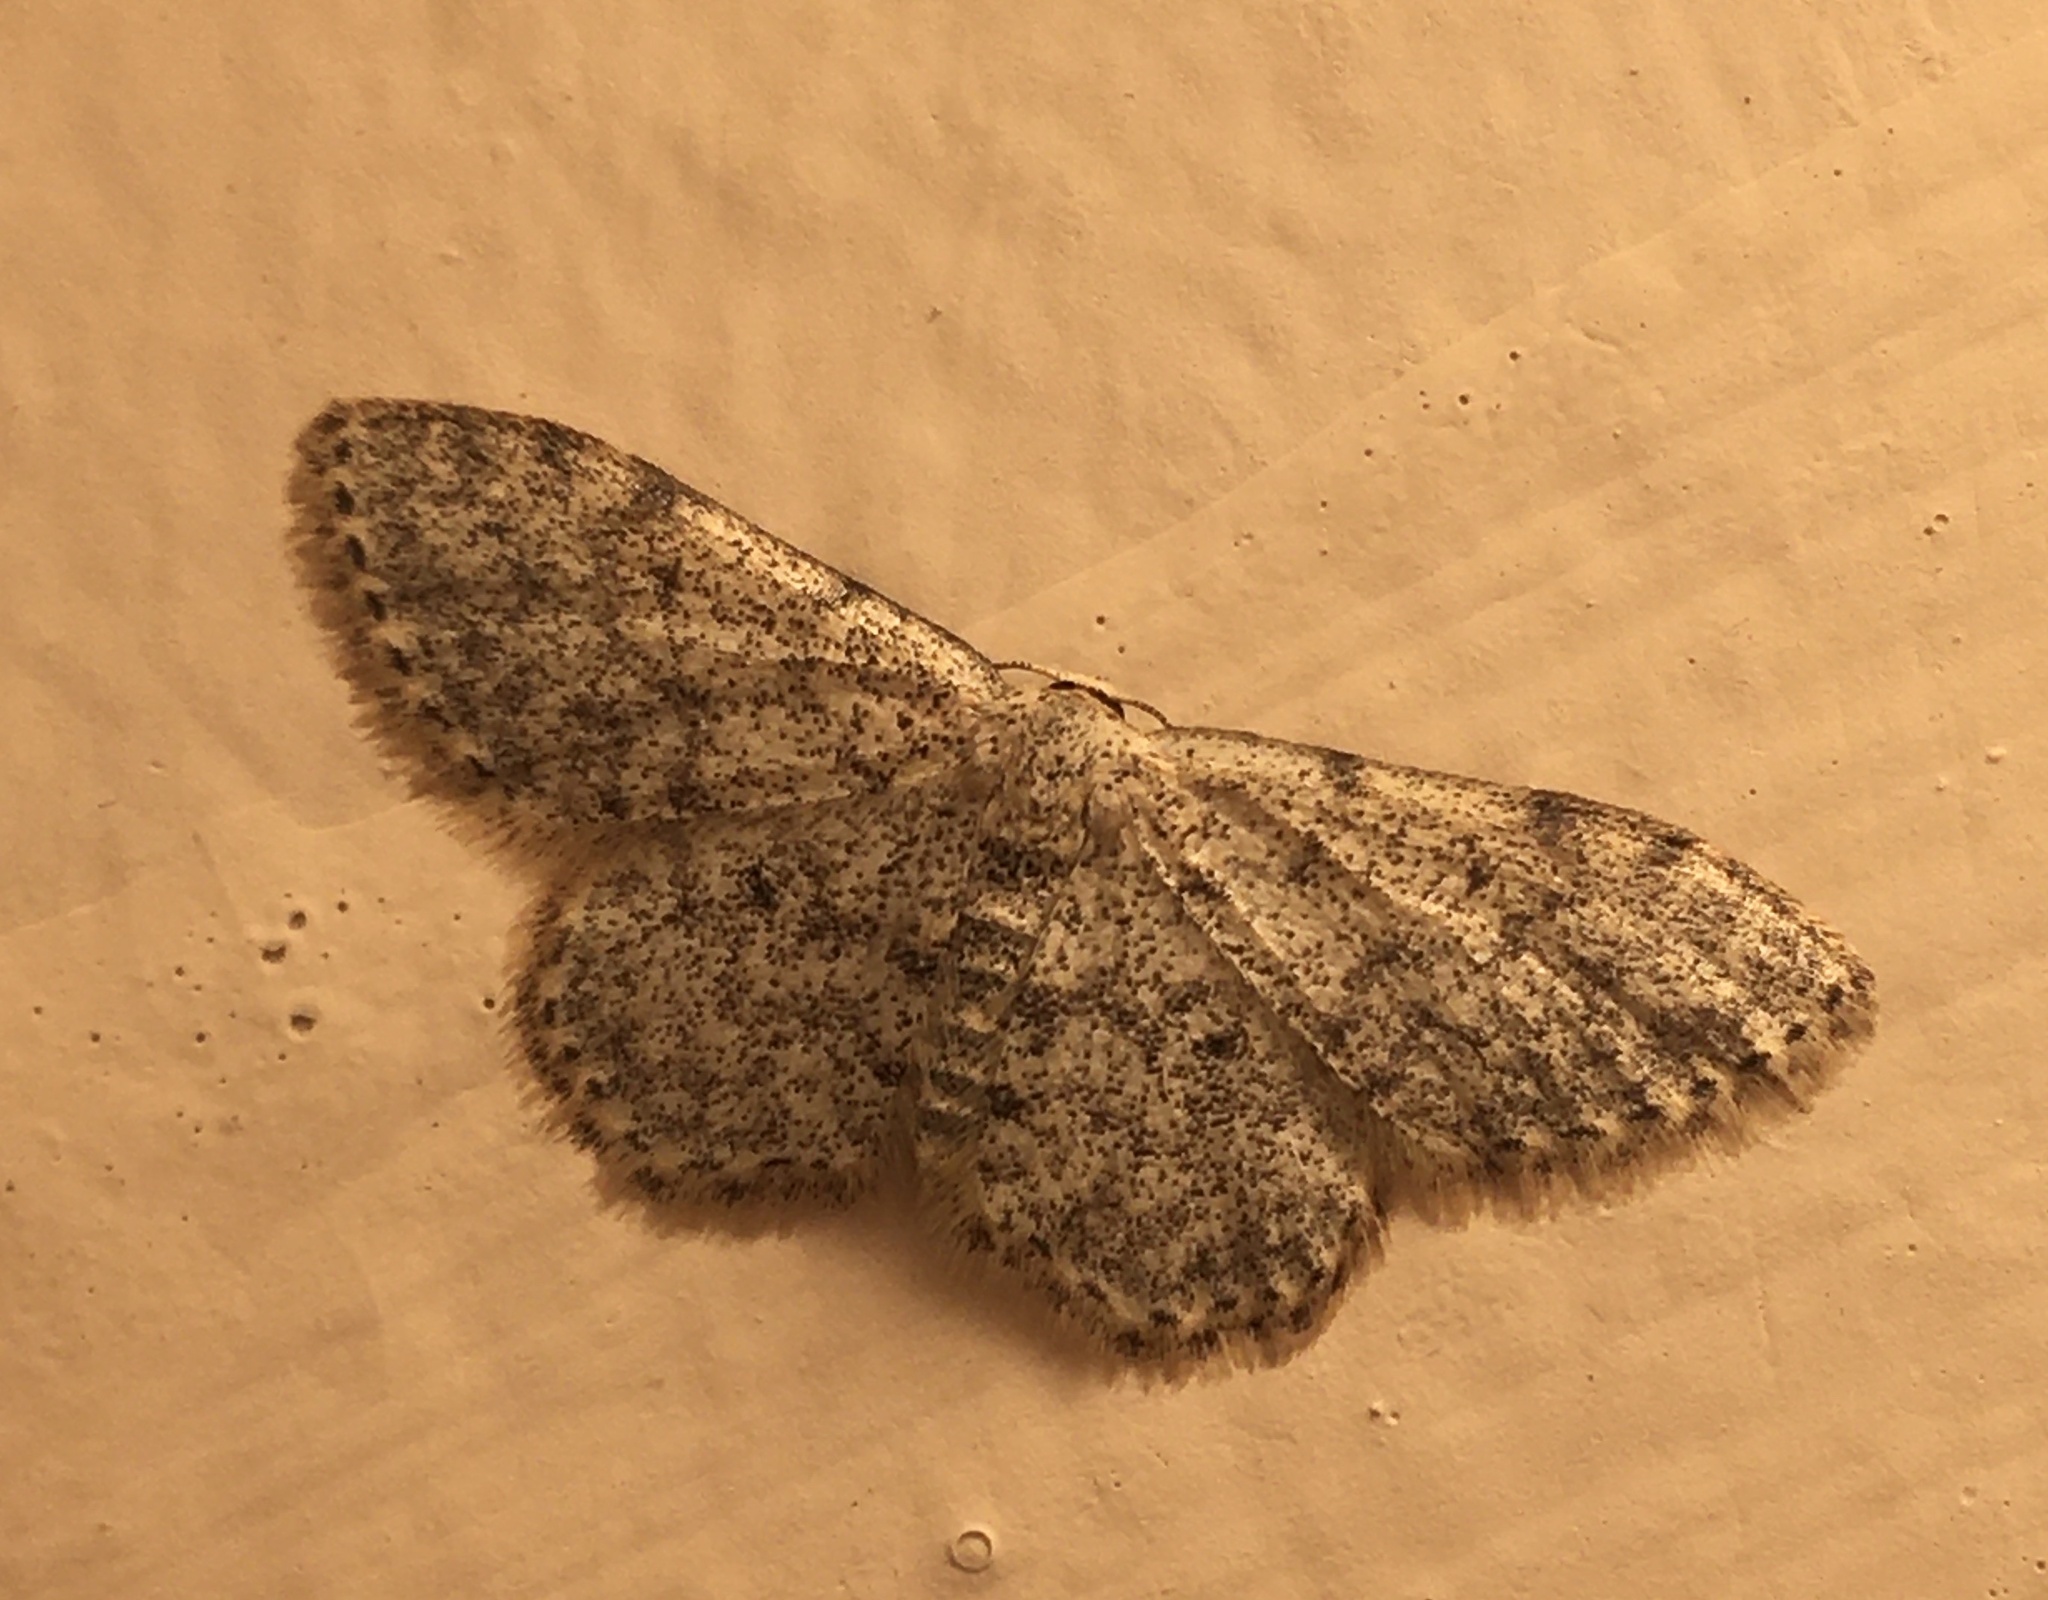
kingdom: Animalia
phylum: Arthropoda
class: Insecta
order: Lepidoptera
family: Geometridae
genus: Idaea
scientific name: Idaea typicata
